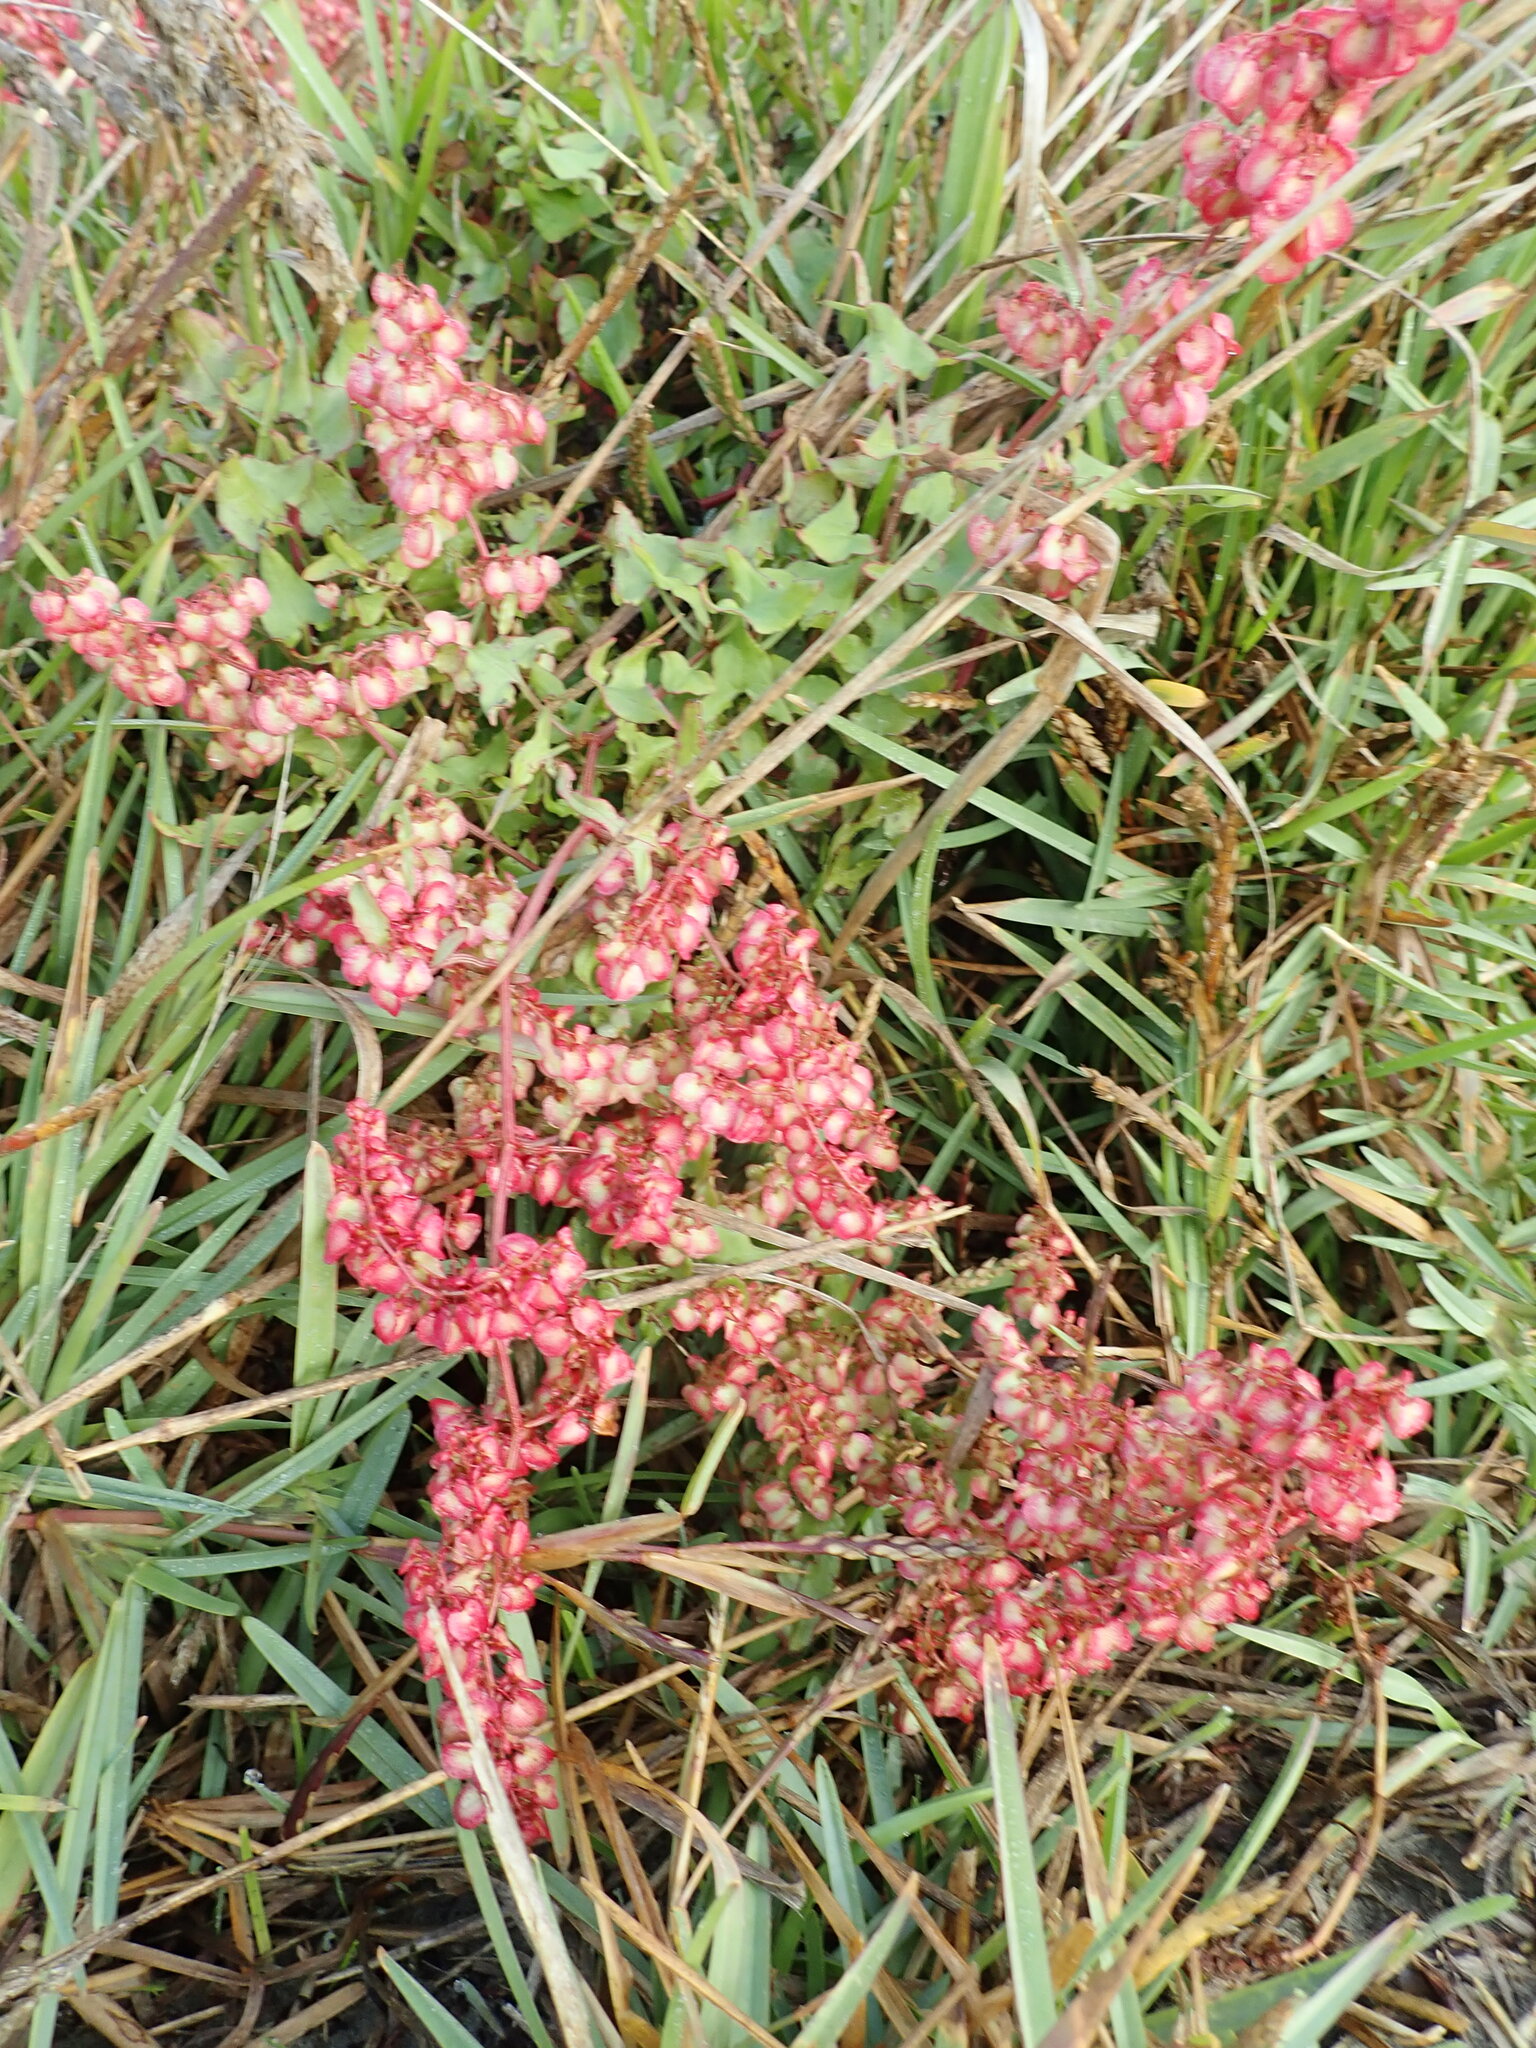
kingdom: Plantae
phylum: Tracheophyta
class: Magnoliopsida
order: Caryophyllales
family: Polygonaceae
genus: Rumex
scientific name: Rumex sagittatus
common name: Climbing dock
